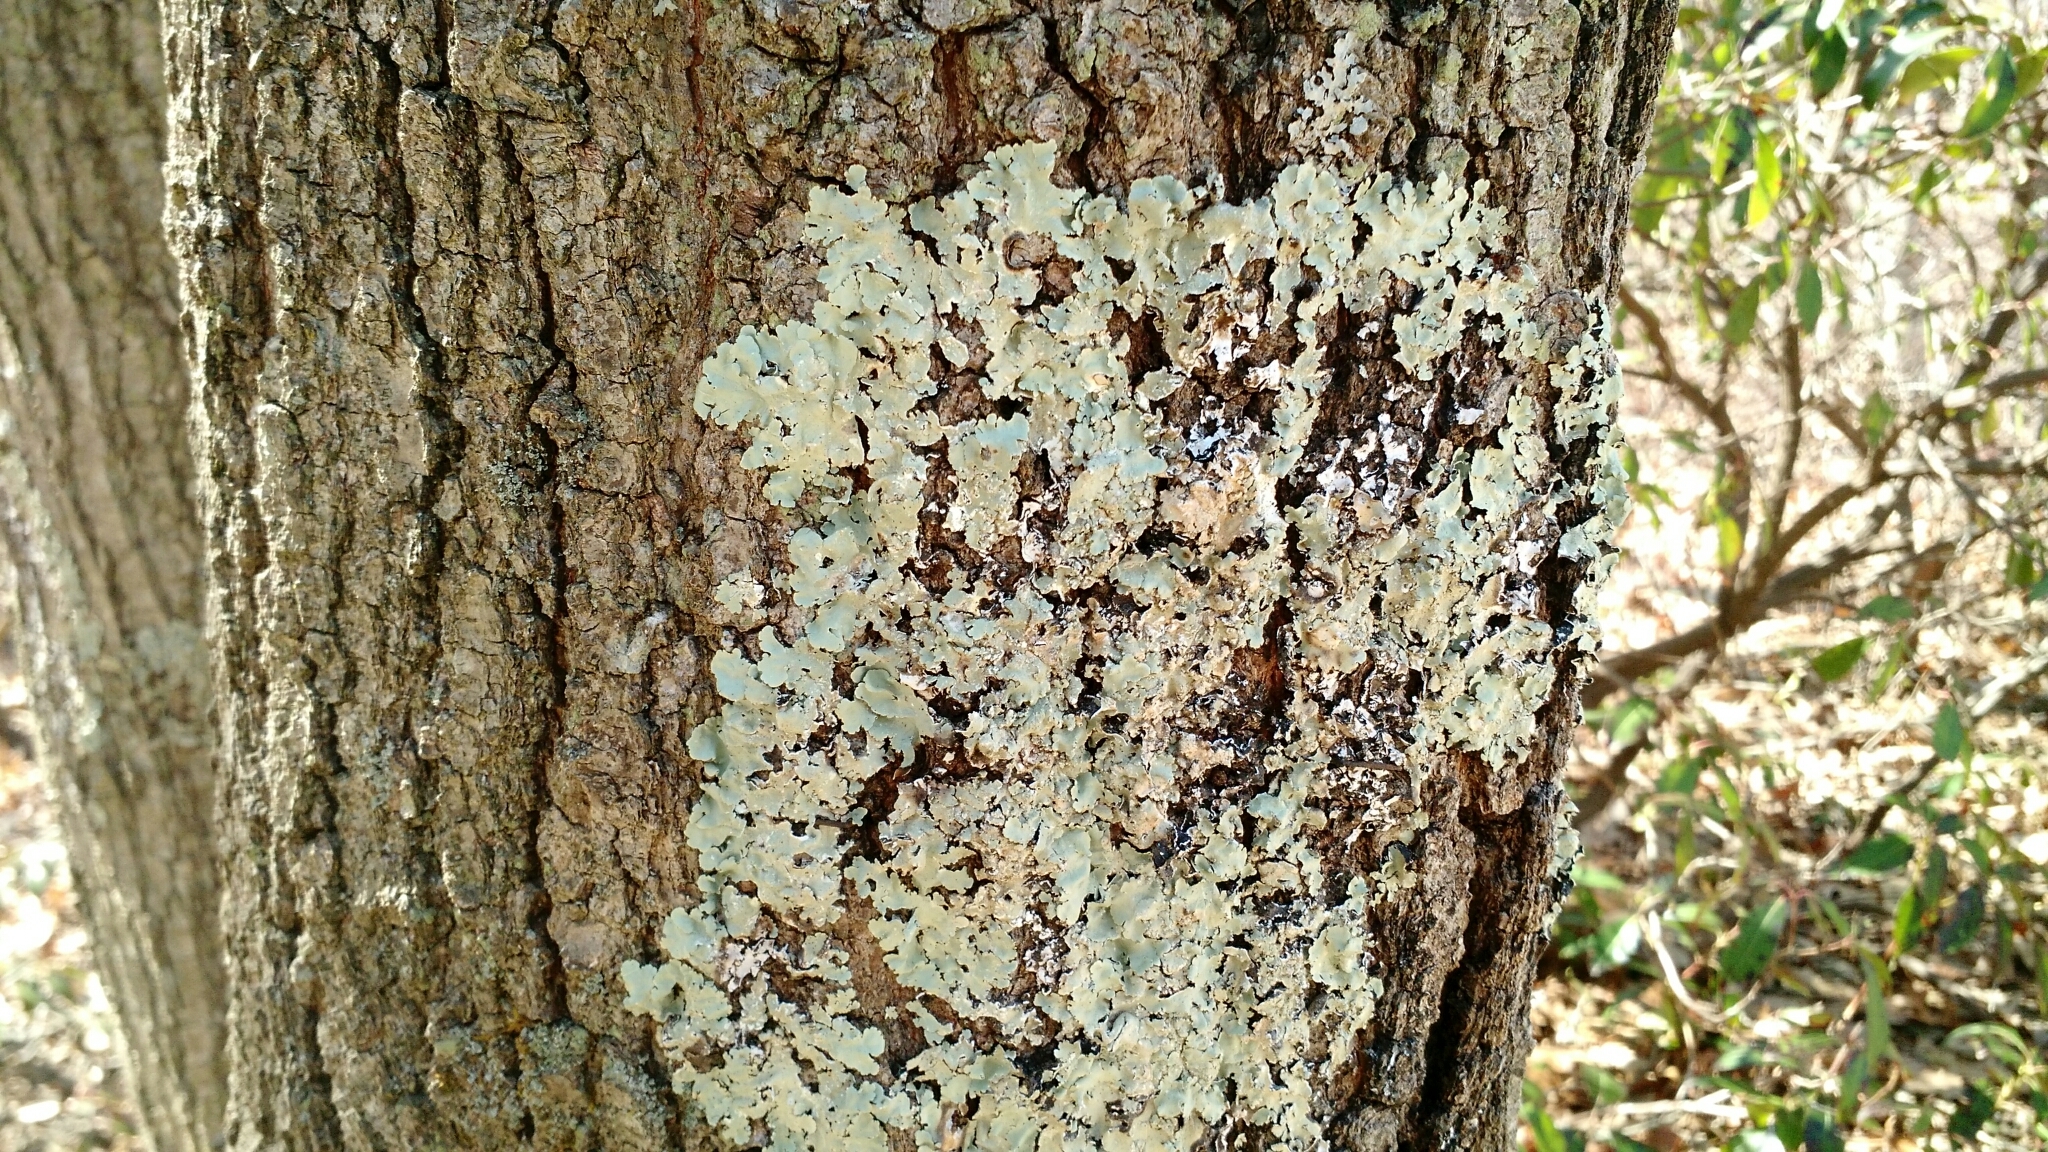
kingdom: Fungi
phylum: Ascomycota
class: Lecanoromycetes
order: Lecanorales
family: Parmeliaceae
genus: Flavoparmelia
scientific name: Flavoparmelia caperata
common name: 40-mile per hour lichen
